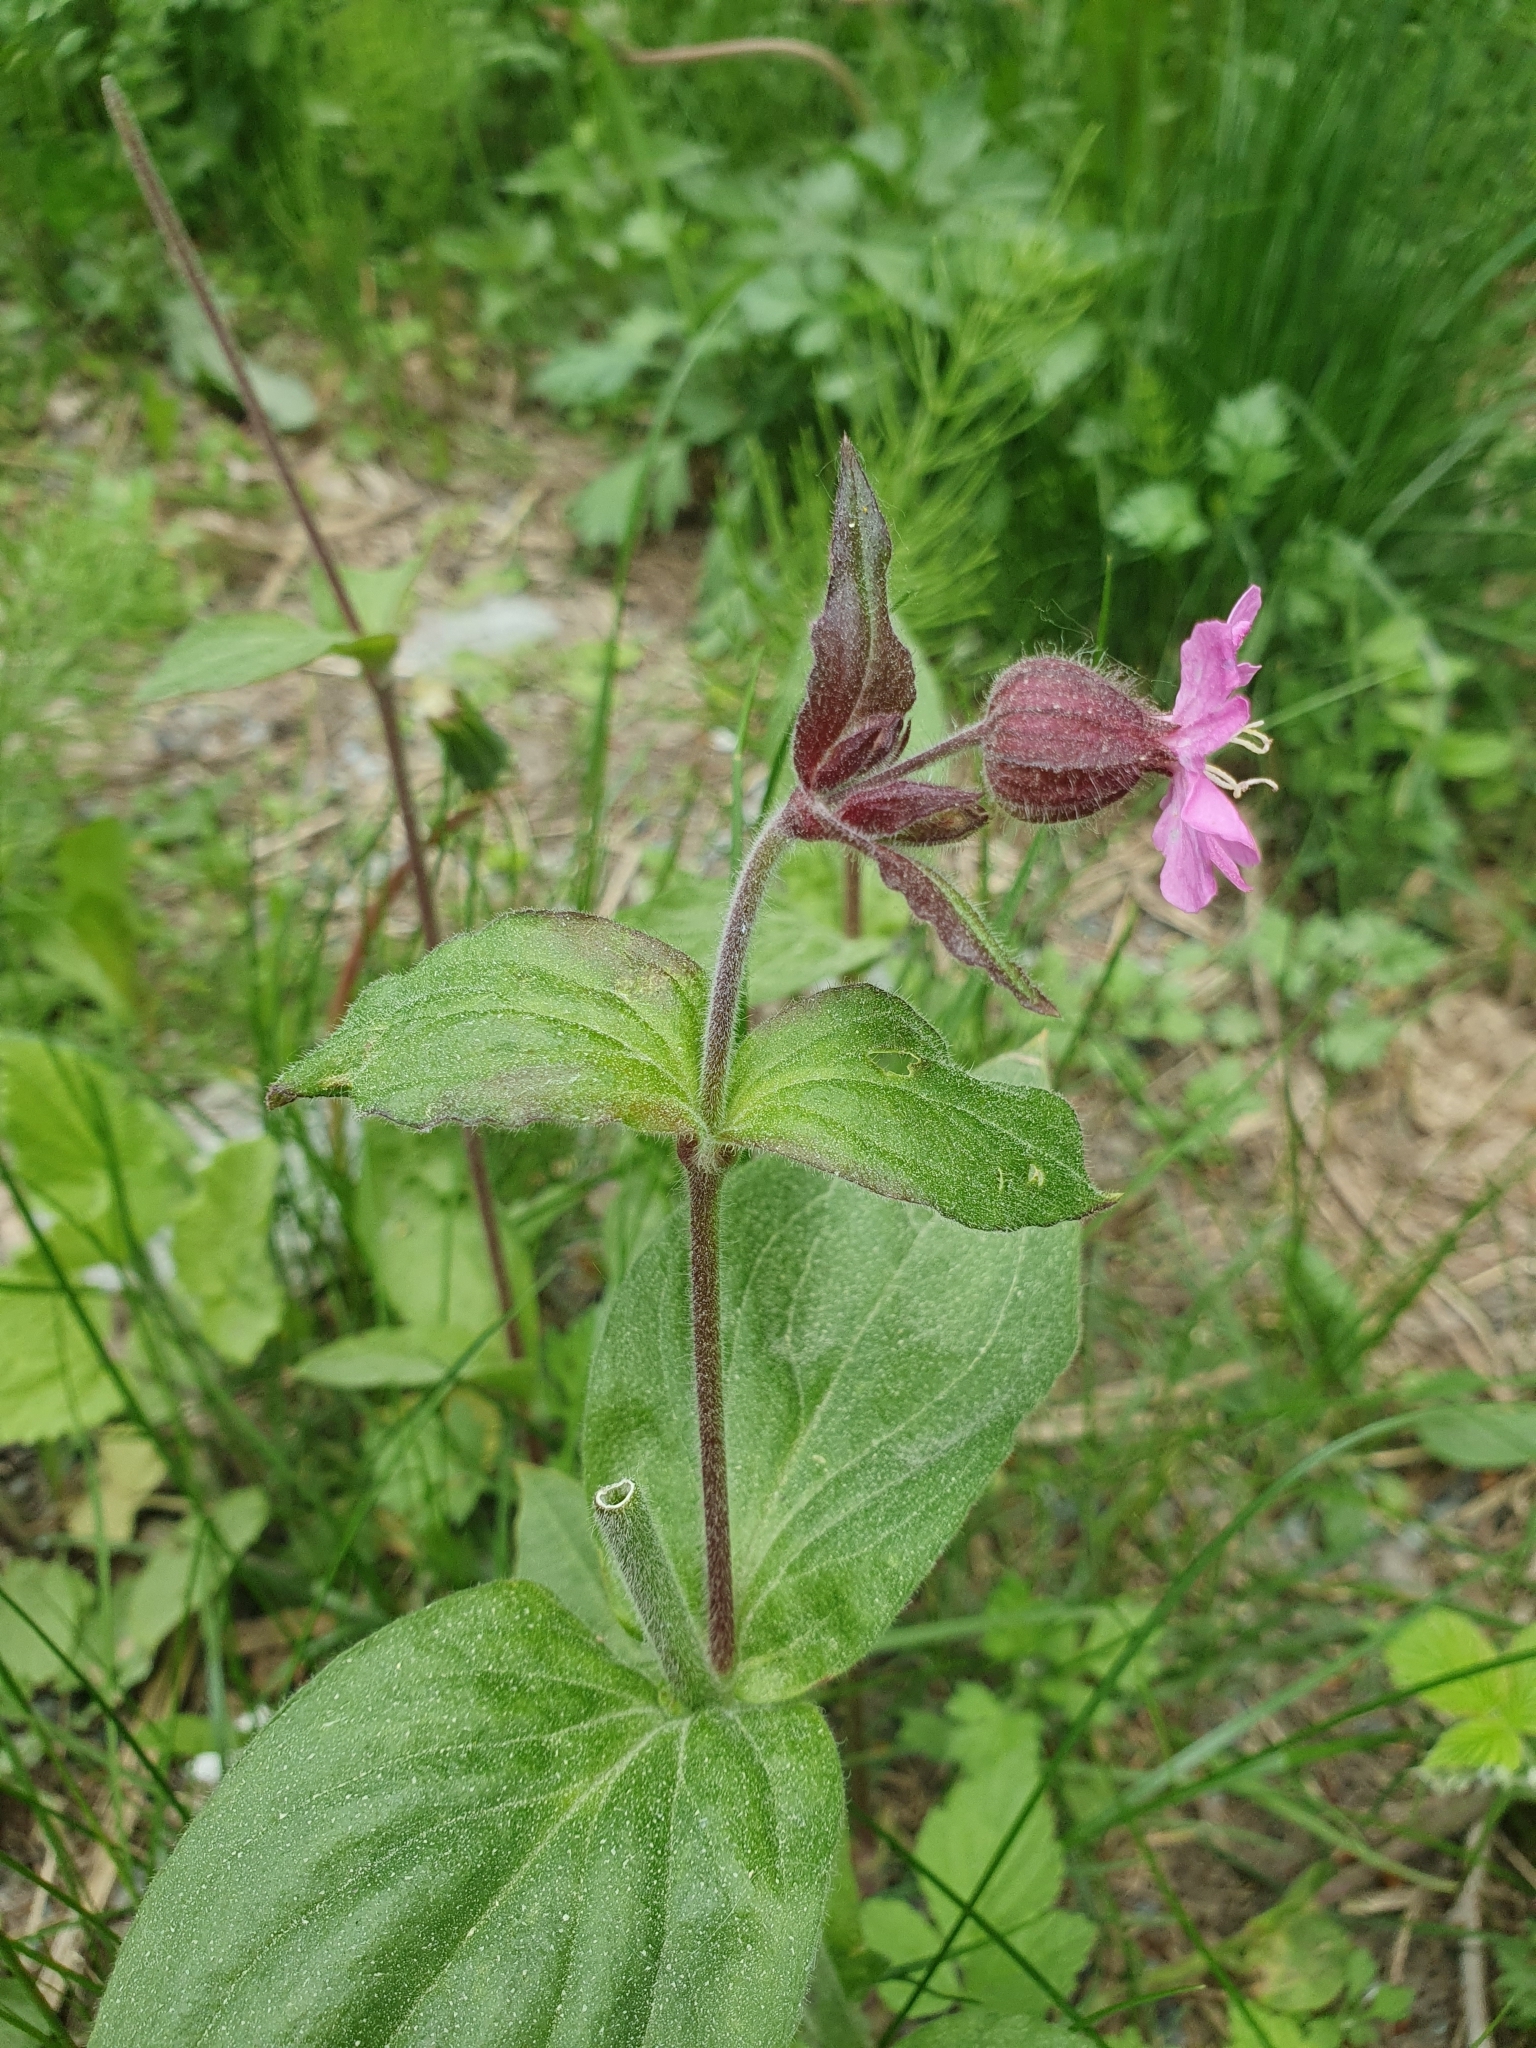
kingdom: Plantae
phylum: Tracheophyta
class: Magnoliopsida
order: Caryophyllales
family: Caryophyllaceae
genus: Silene
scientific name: Silene dioica
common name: Red campion
